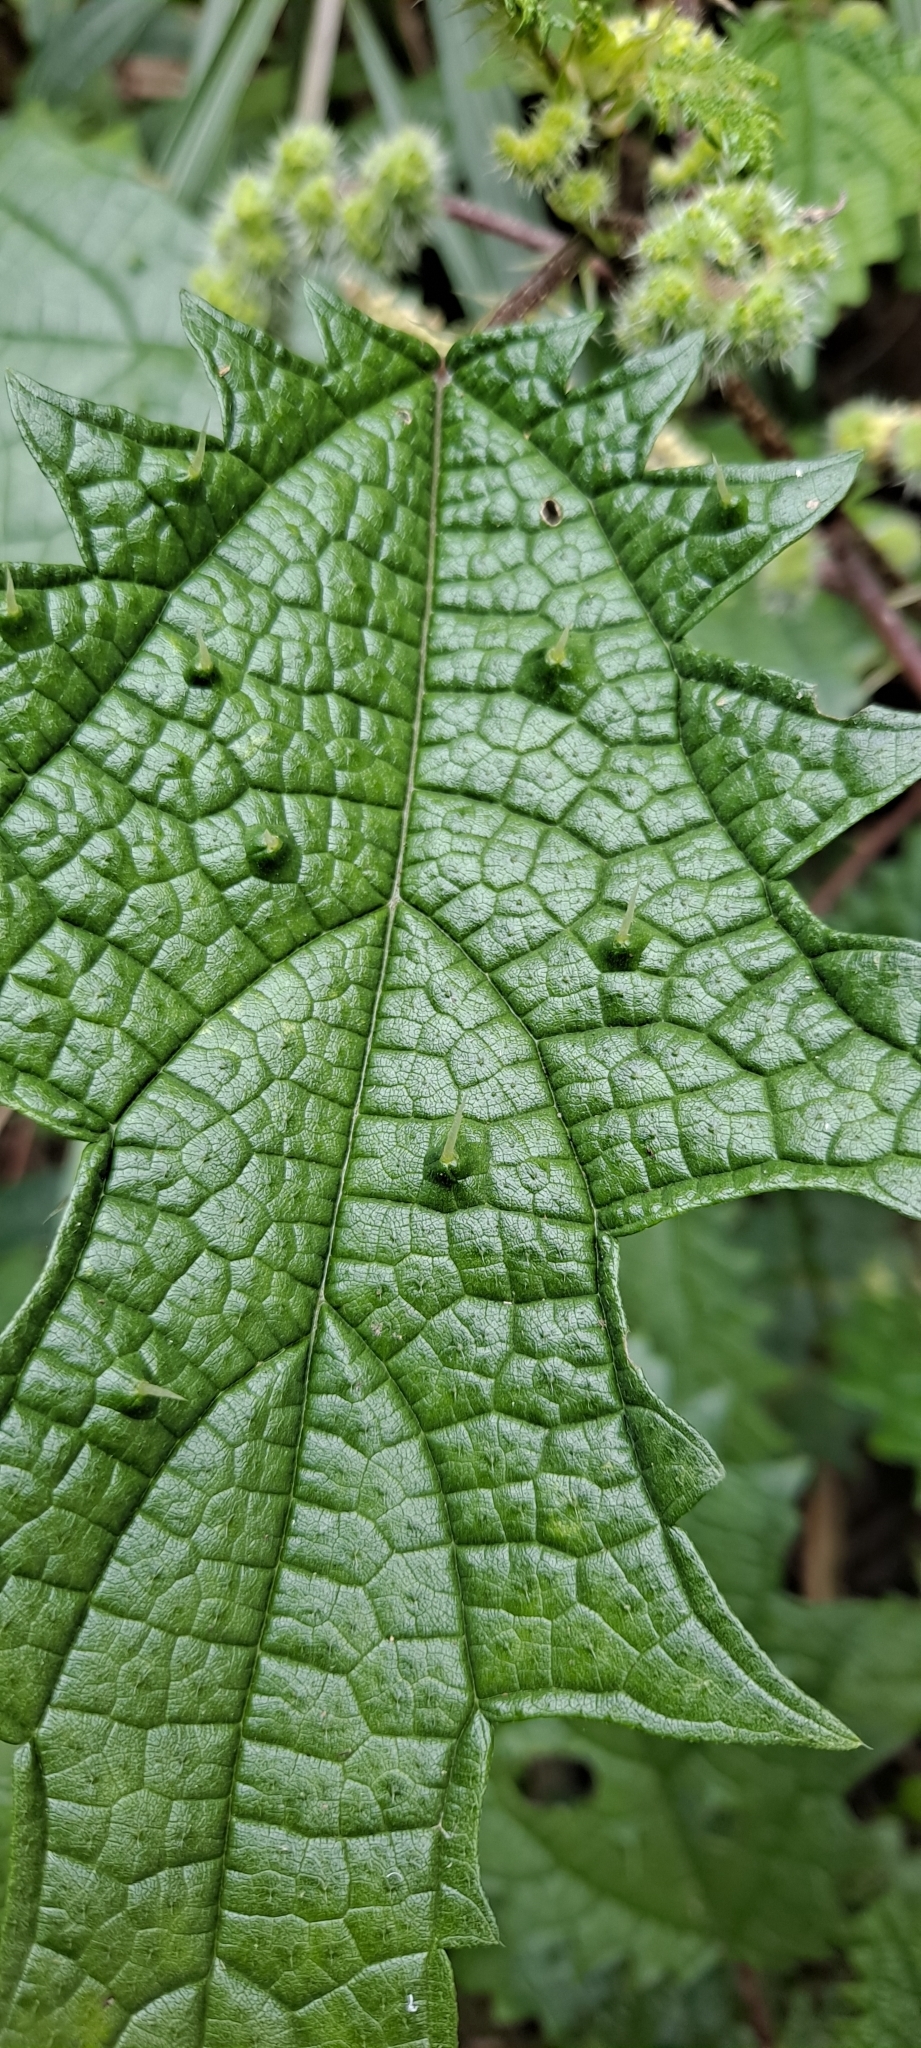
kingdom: Plantae
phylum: Tracheophyta
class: Magnoliopsida
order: Rosales
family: Urticaceae
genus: Girardinia
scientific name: Girardinia diversifolia
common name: Himalayan-nettle
